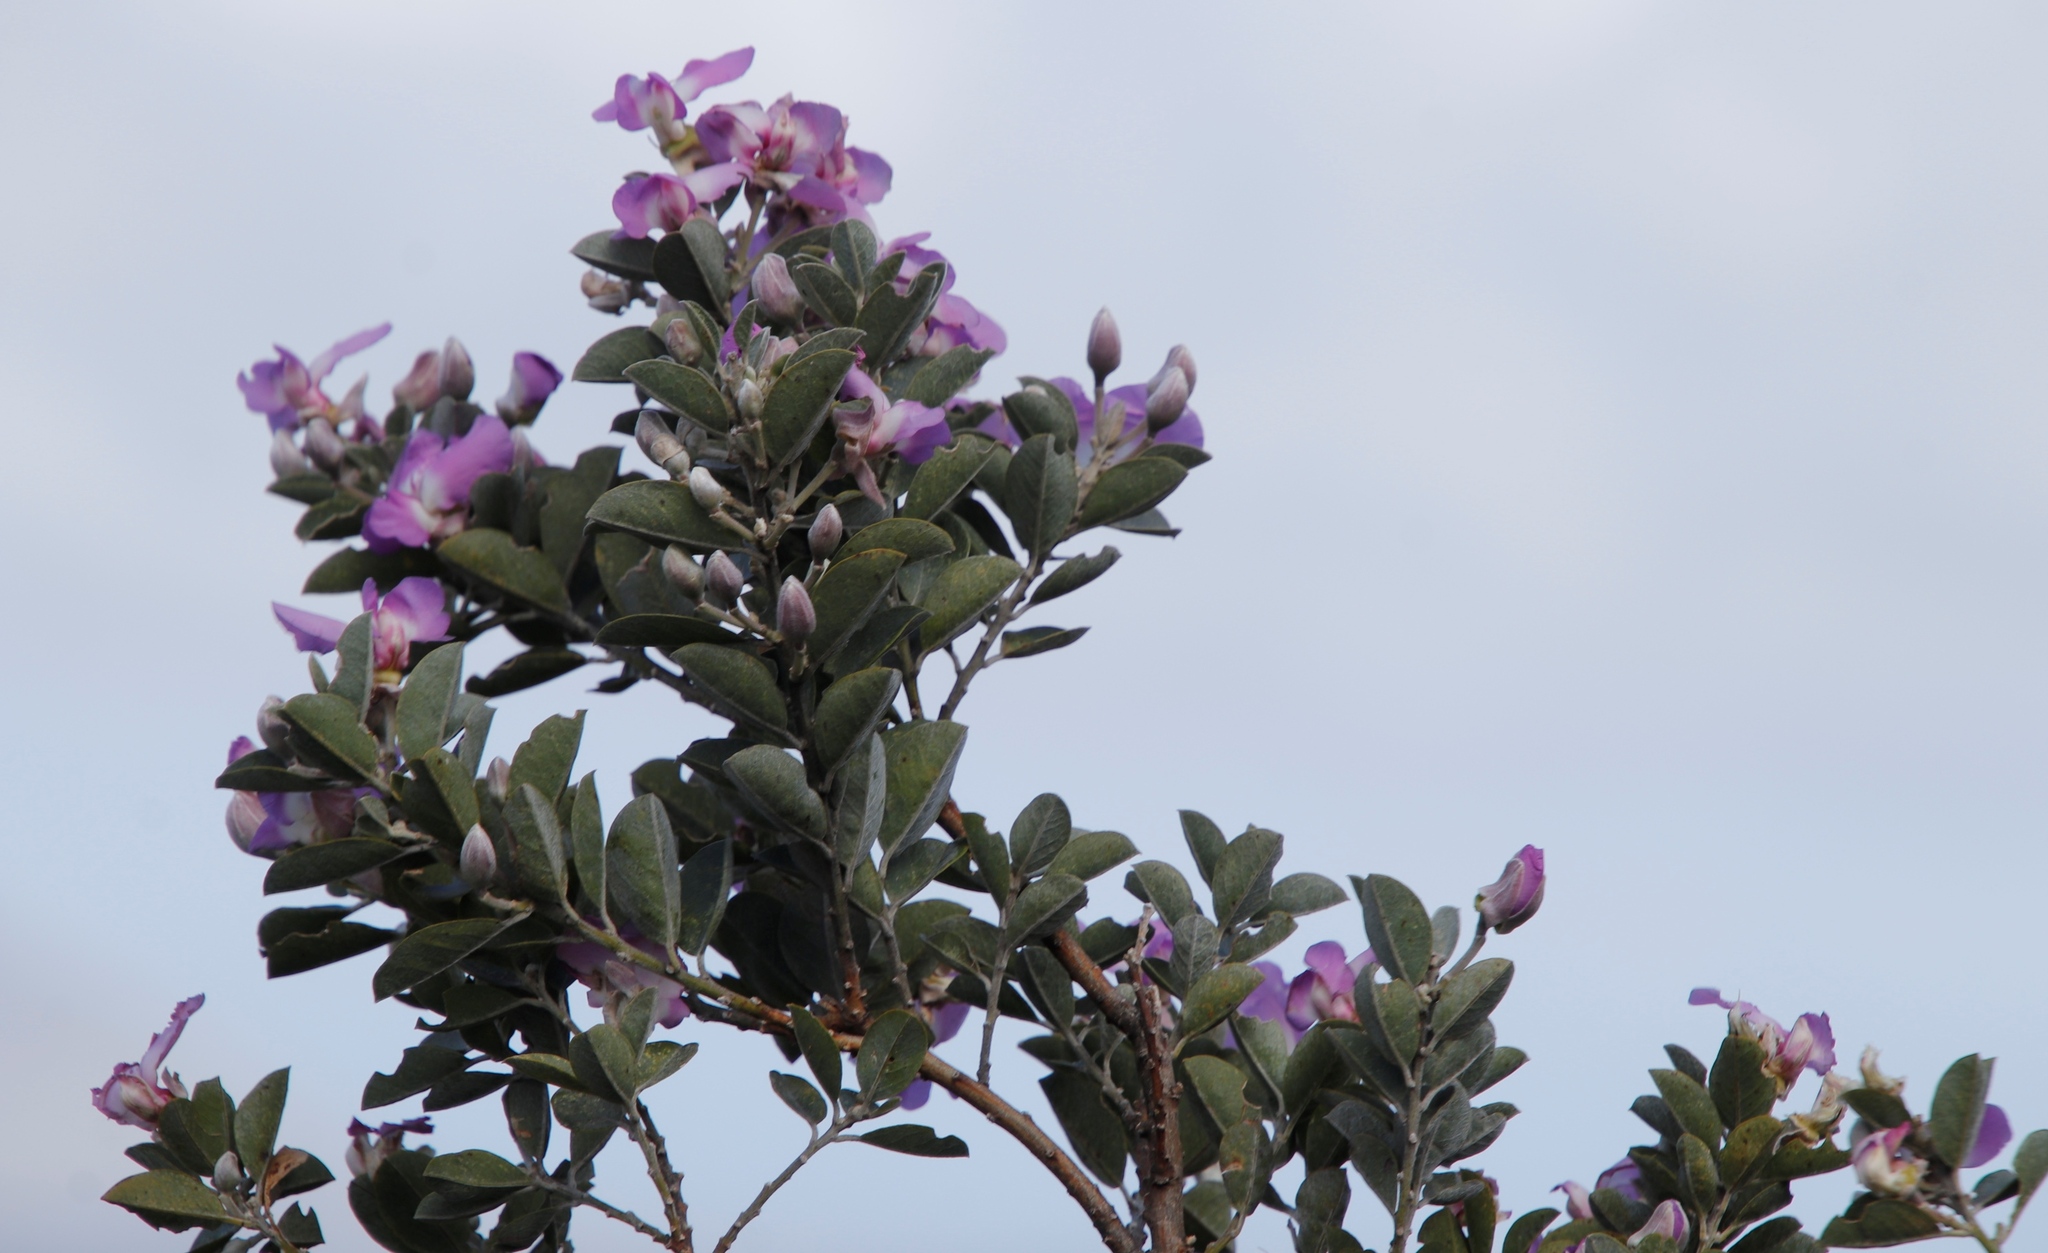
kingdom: Plantae
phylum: Tracheophyta
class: Magnoliopsida
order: Fabales
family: Fabaceae
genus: Podalyria
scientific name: Podalyria calyptrata
